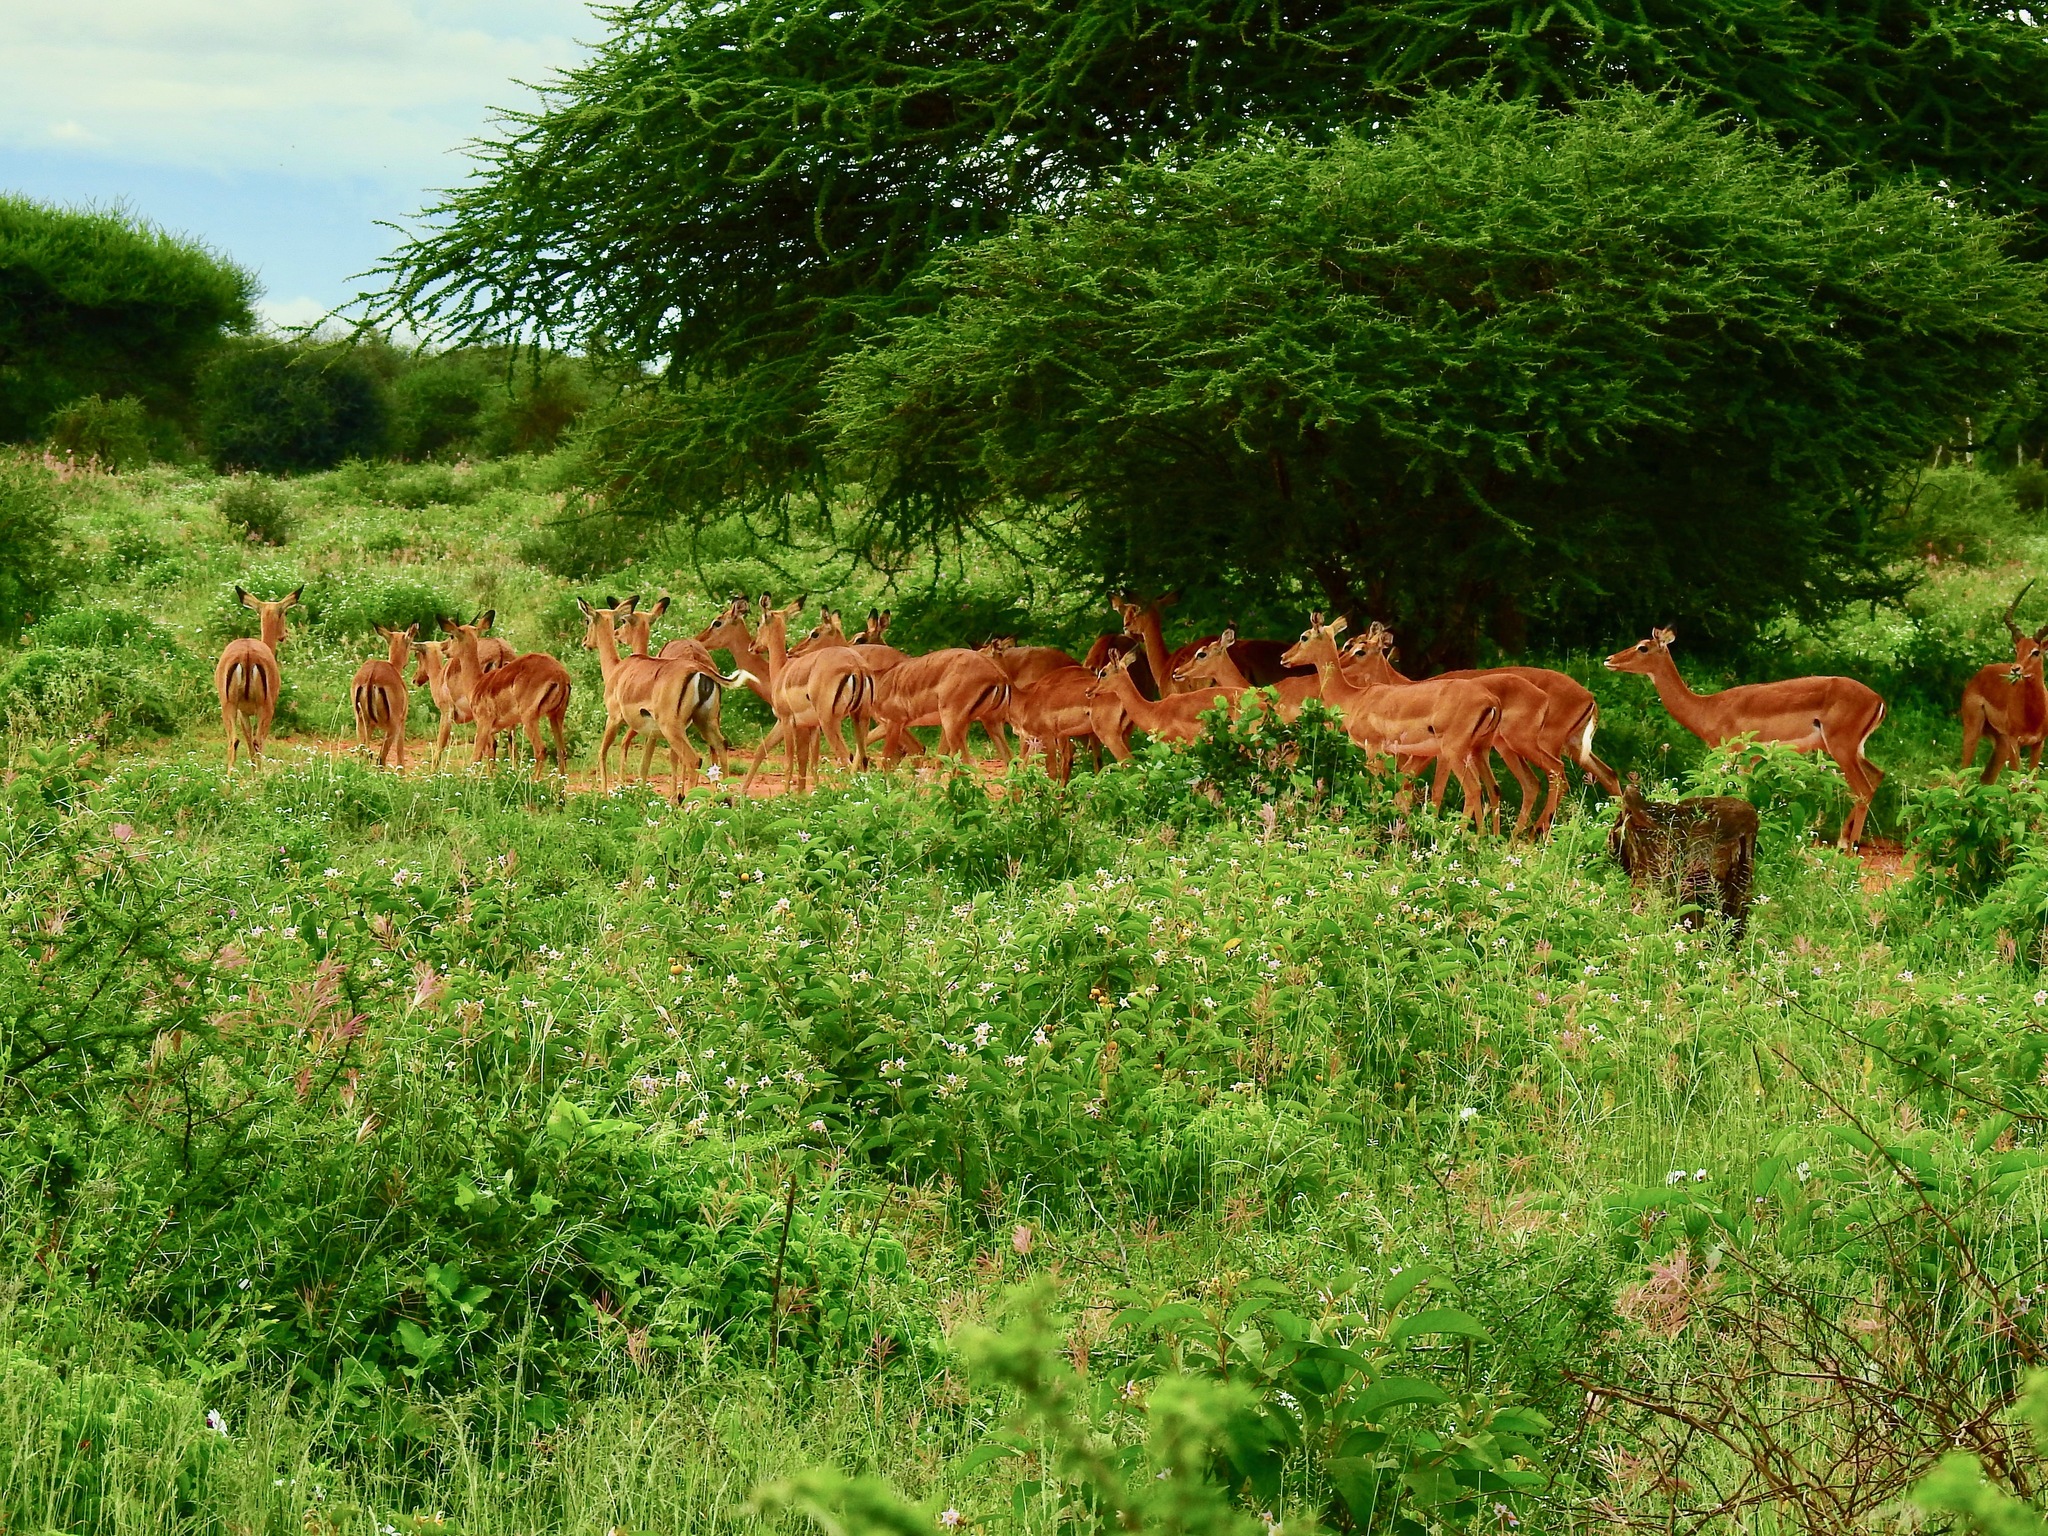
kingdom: Animalia
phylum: Chordata
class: Mammalia
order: Artiodactyla
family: Bovidae
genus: Aepyceros
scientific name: Aepyceros melampus
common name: Impala
